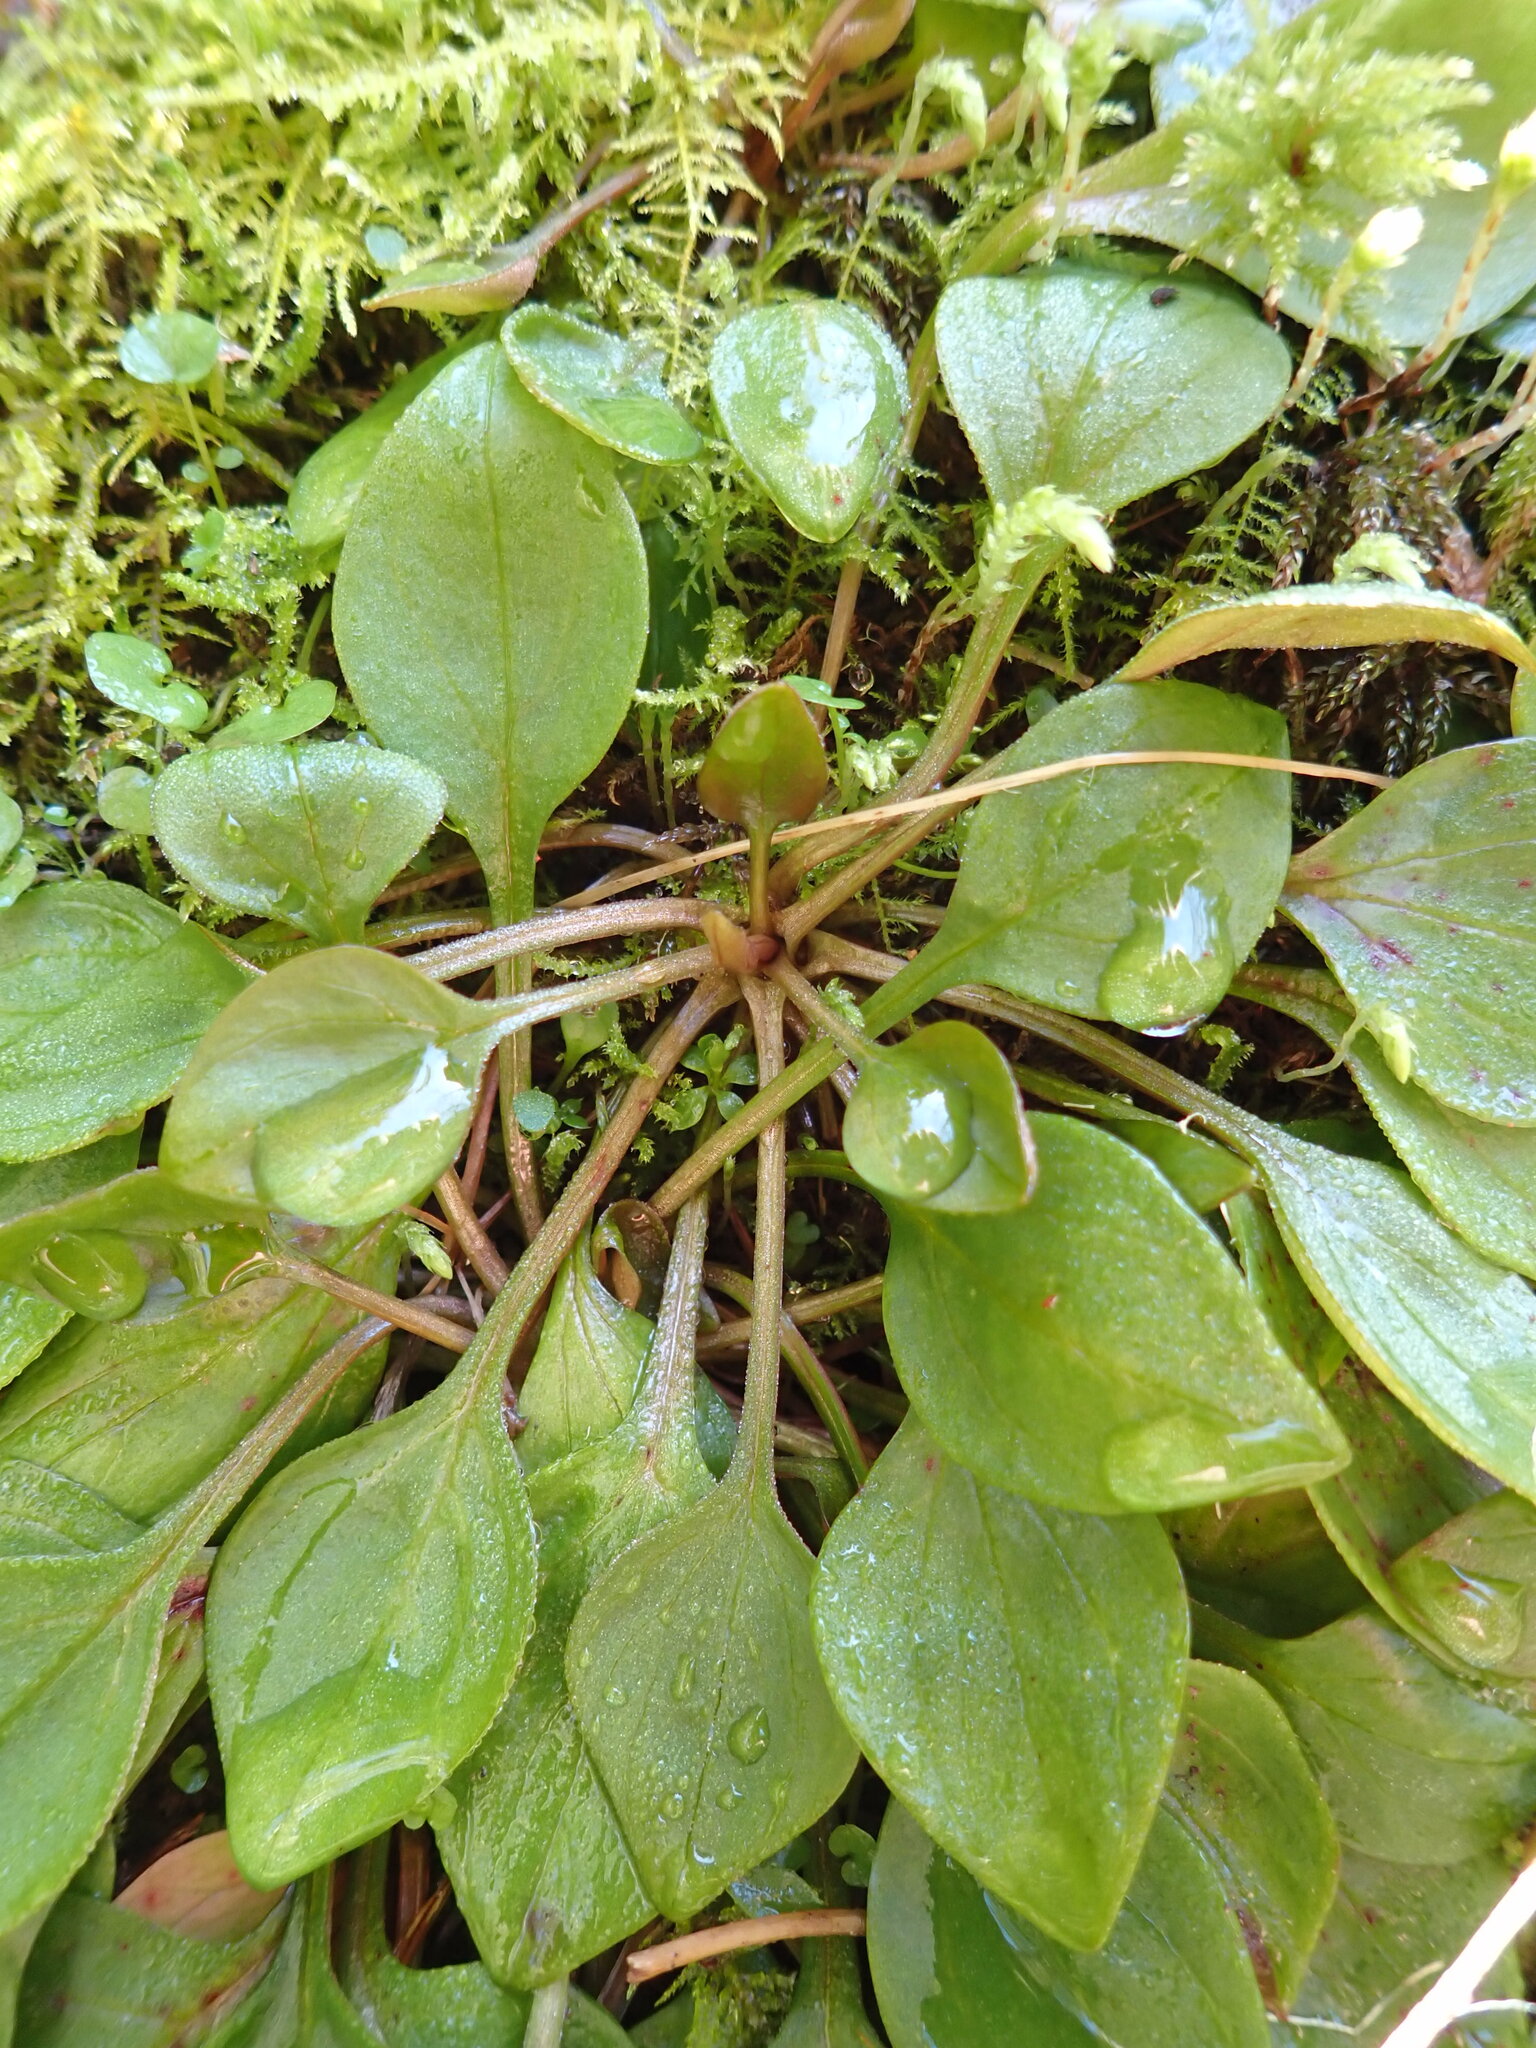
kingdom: Plantae
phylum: Tracheophyta
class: Magnoliopsida
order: Caryophyllales
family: Montiaceae
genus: Claytonia
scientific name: Claytonia sibirica
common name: Pink purslane
